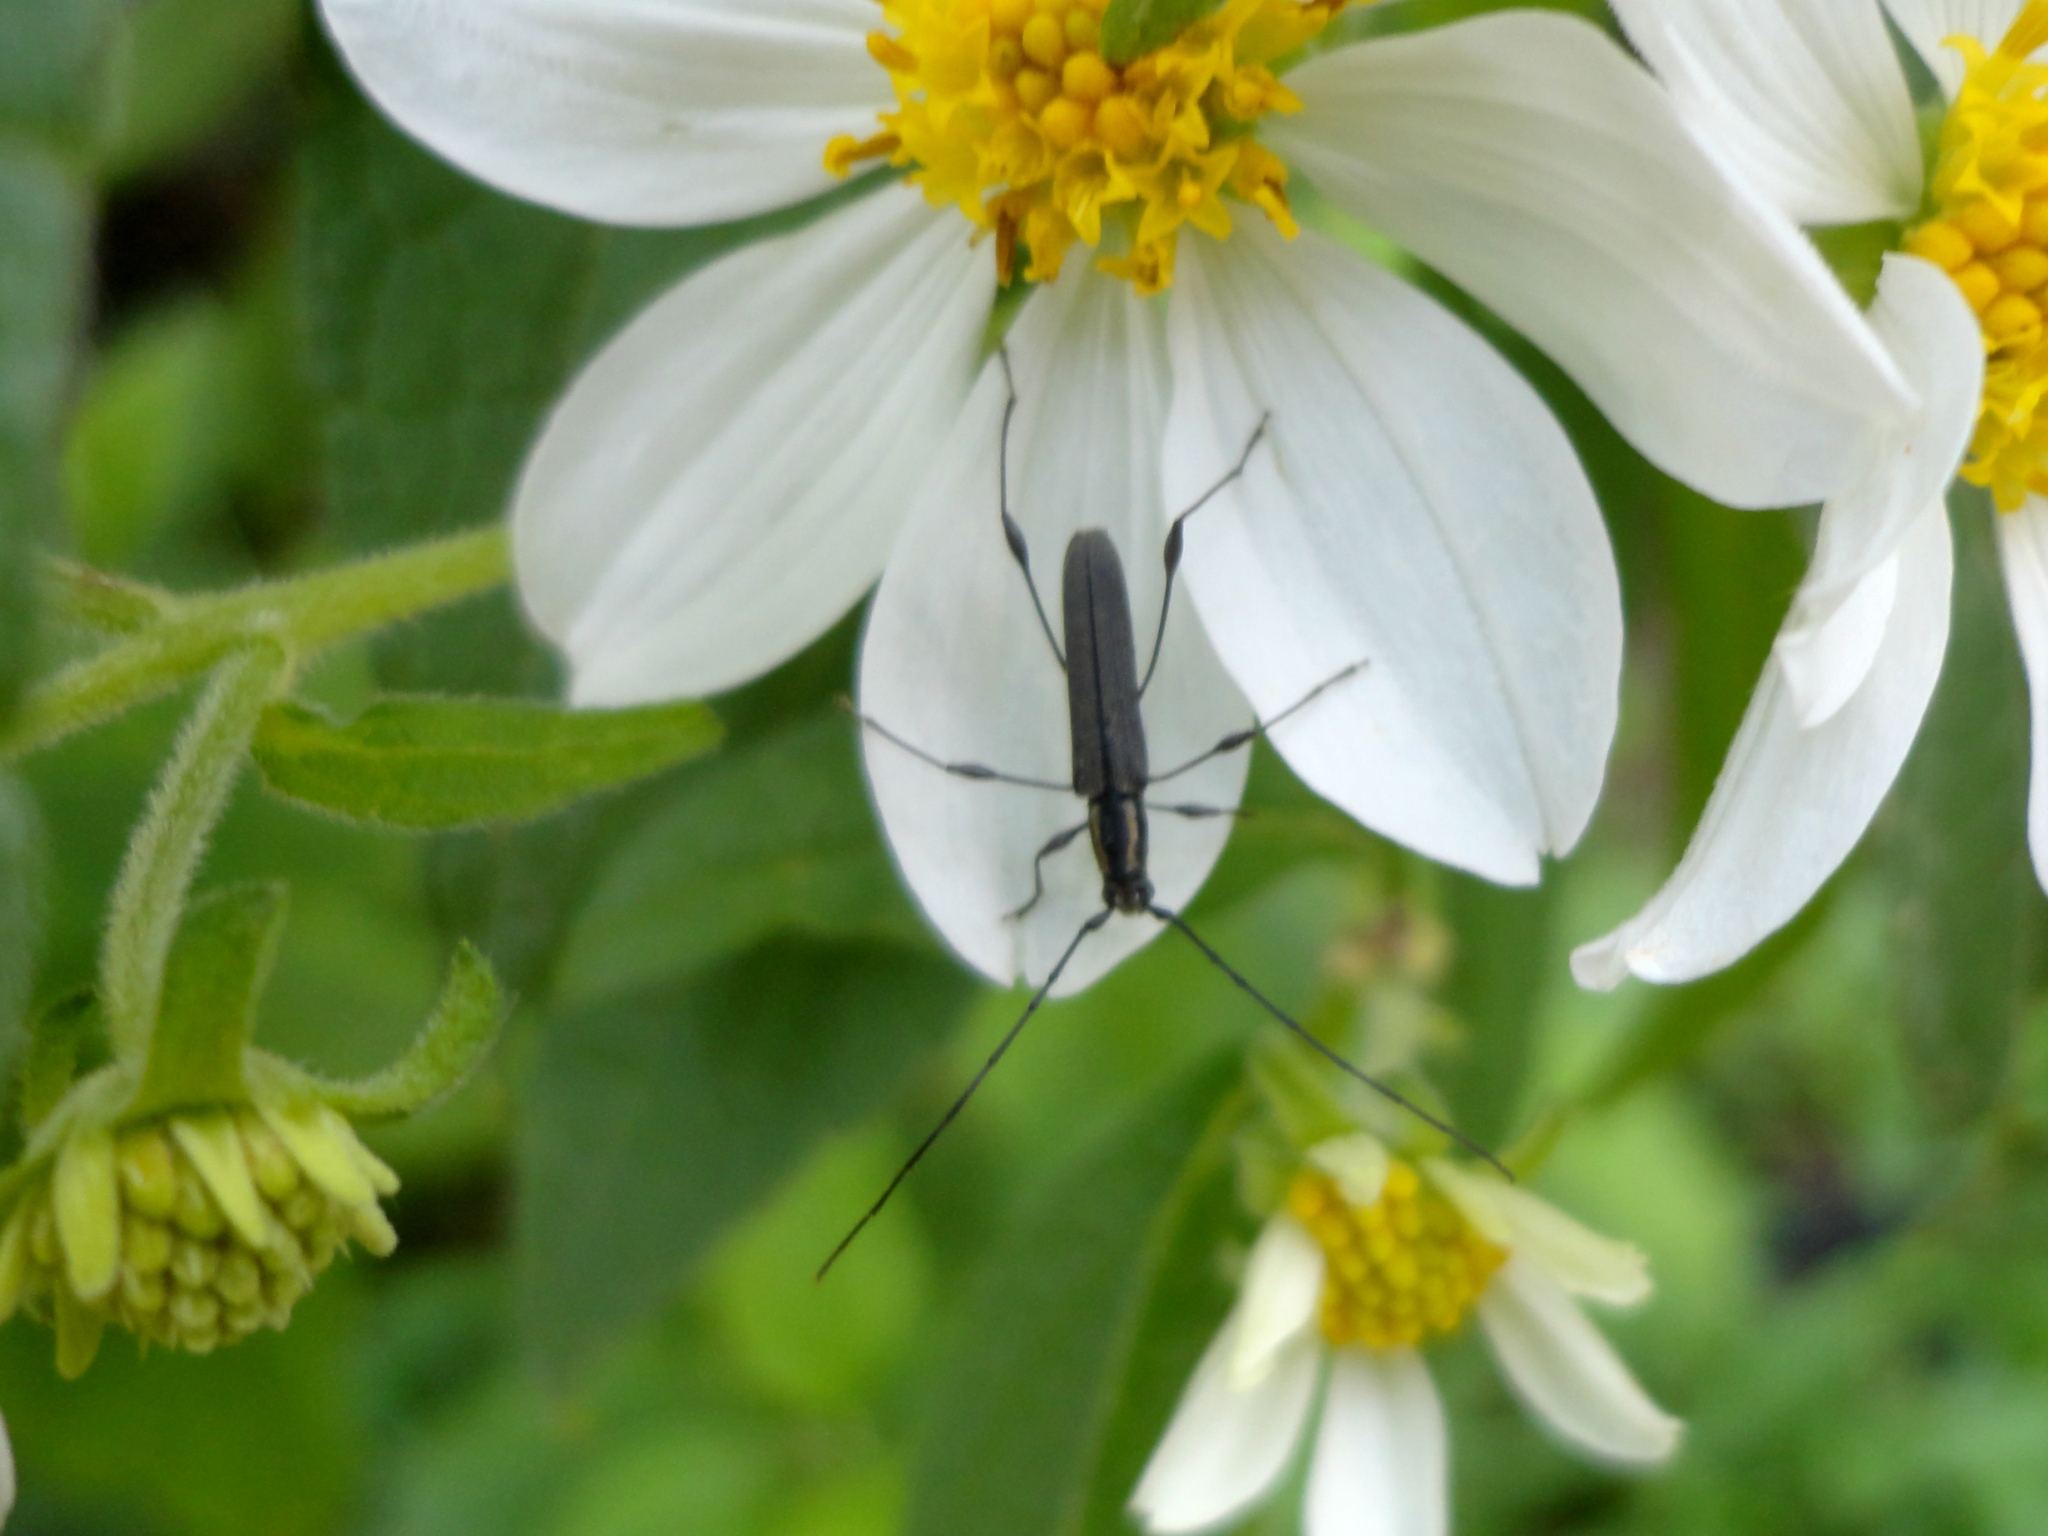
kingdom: Animalia
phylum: Arthropoda
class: Insecta
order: Coleoptera
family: Cerambycidae
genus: Rhopalophora
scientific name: Rhopalophora tenuis
